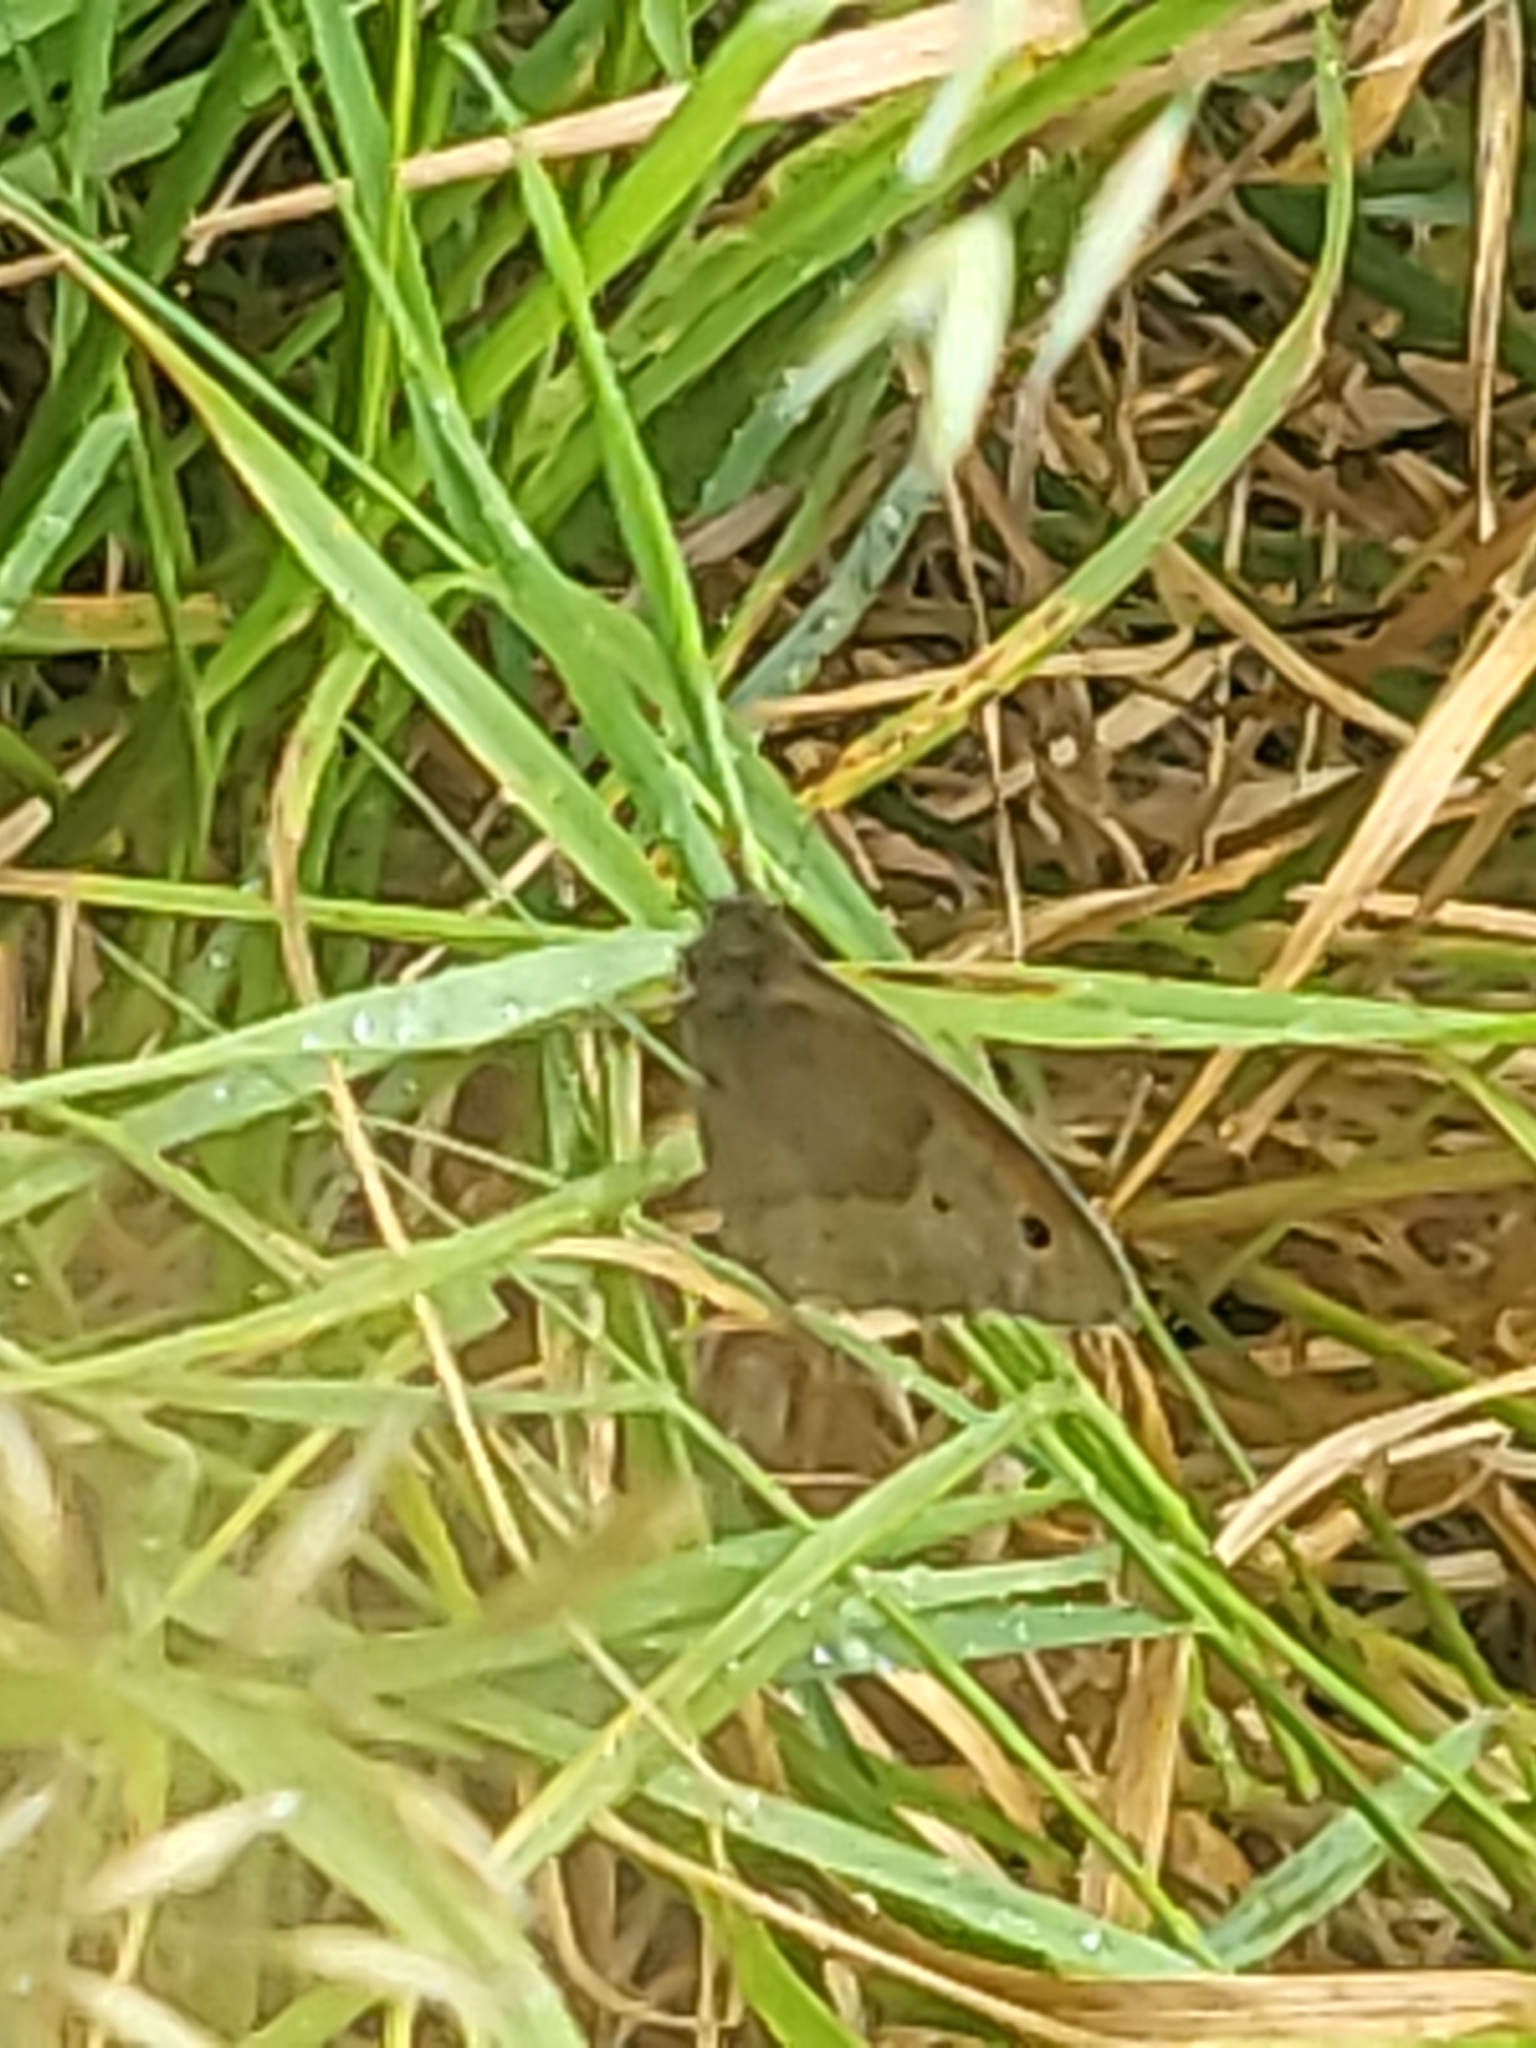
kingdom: Animalia
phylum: Arthropoda
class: Insecta
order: Lepidoptera
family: Nymphalidae
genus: Maniola
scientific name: Maniola jurtina
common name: Meadow brown
